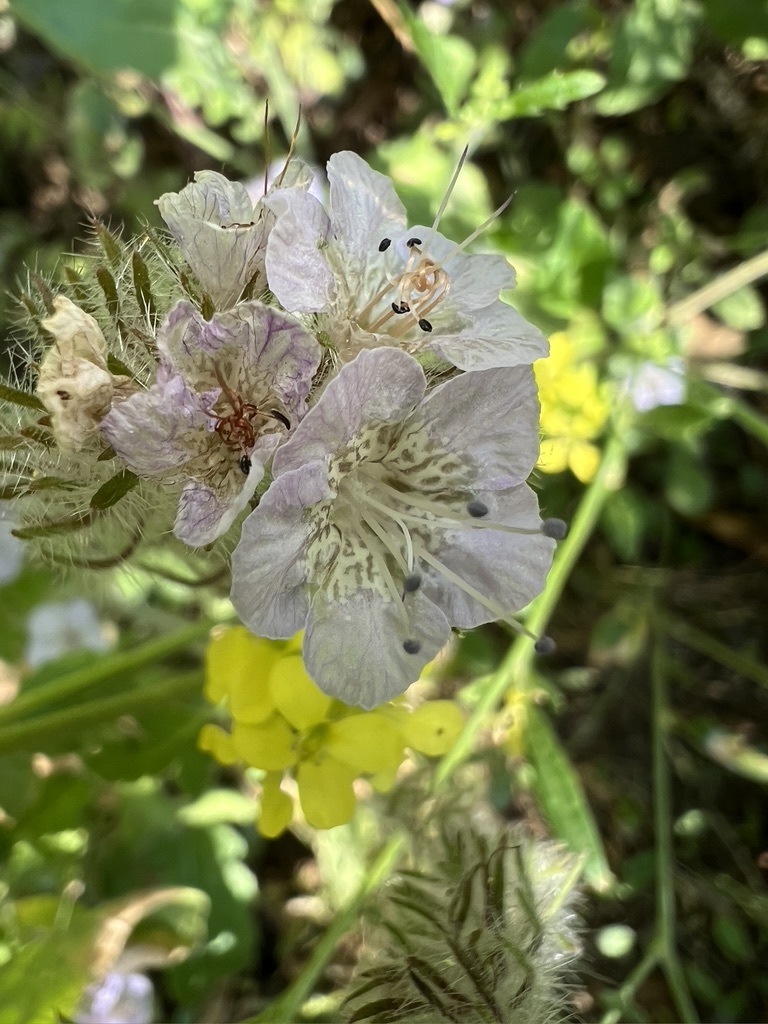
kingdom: Plantae
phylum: Tracheophyta
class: Magnoliopsida
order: Boraginales
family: Hydrophyllaceae
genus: Phacelia
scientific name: Phacelia cicutaria
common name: Caterpillar phacelia
